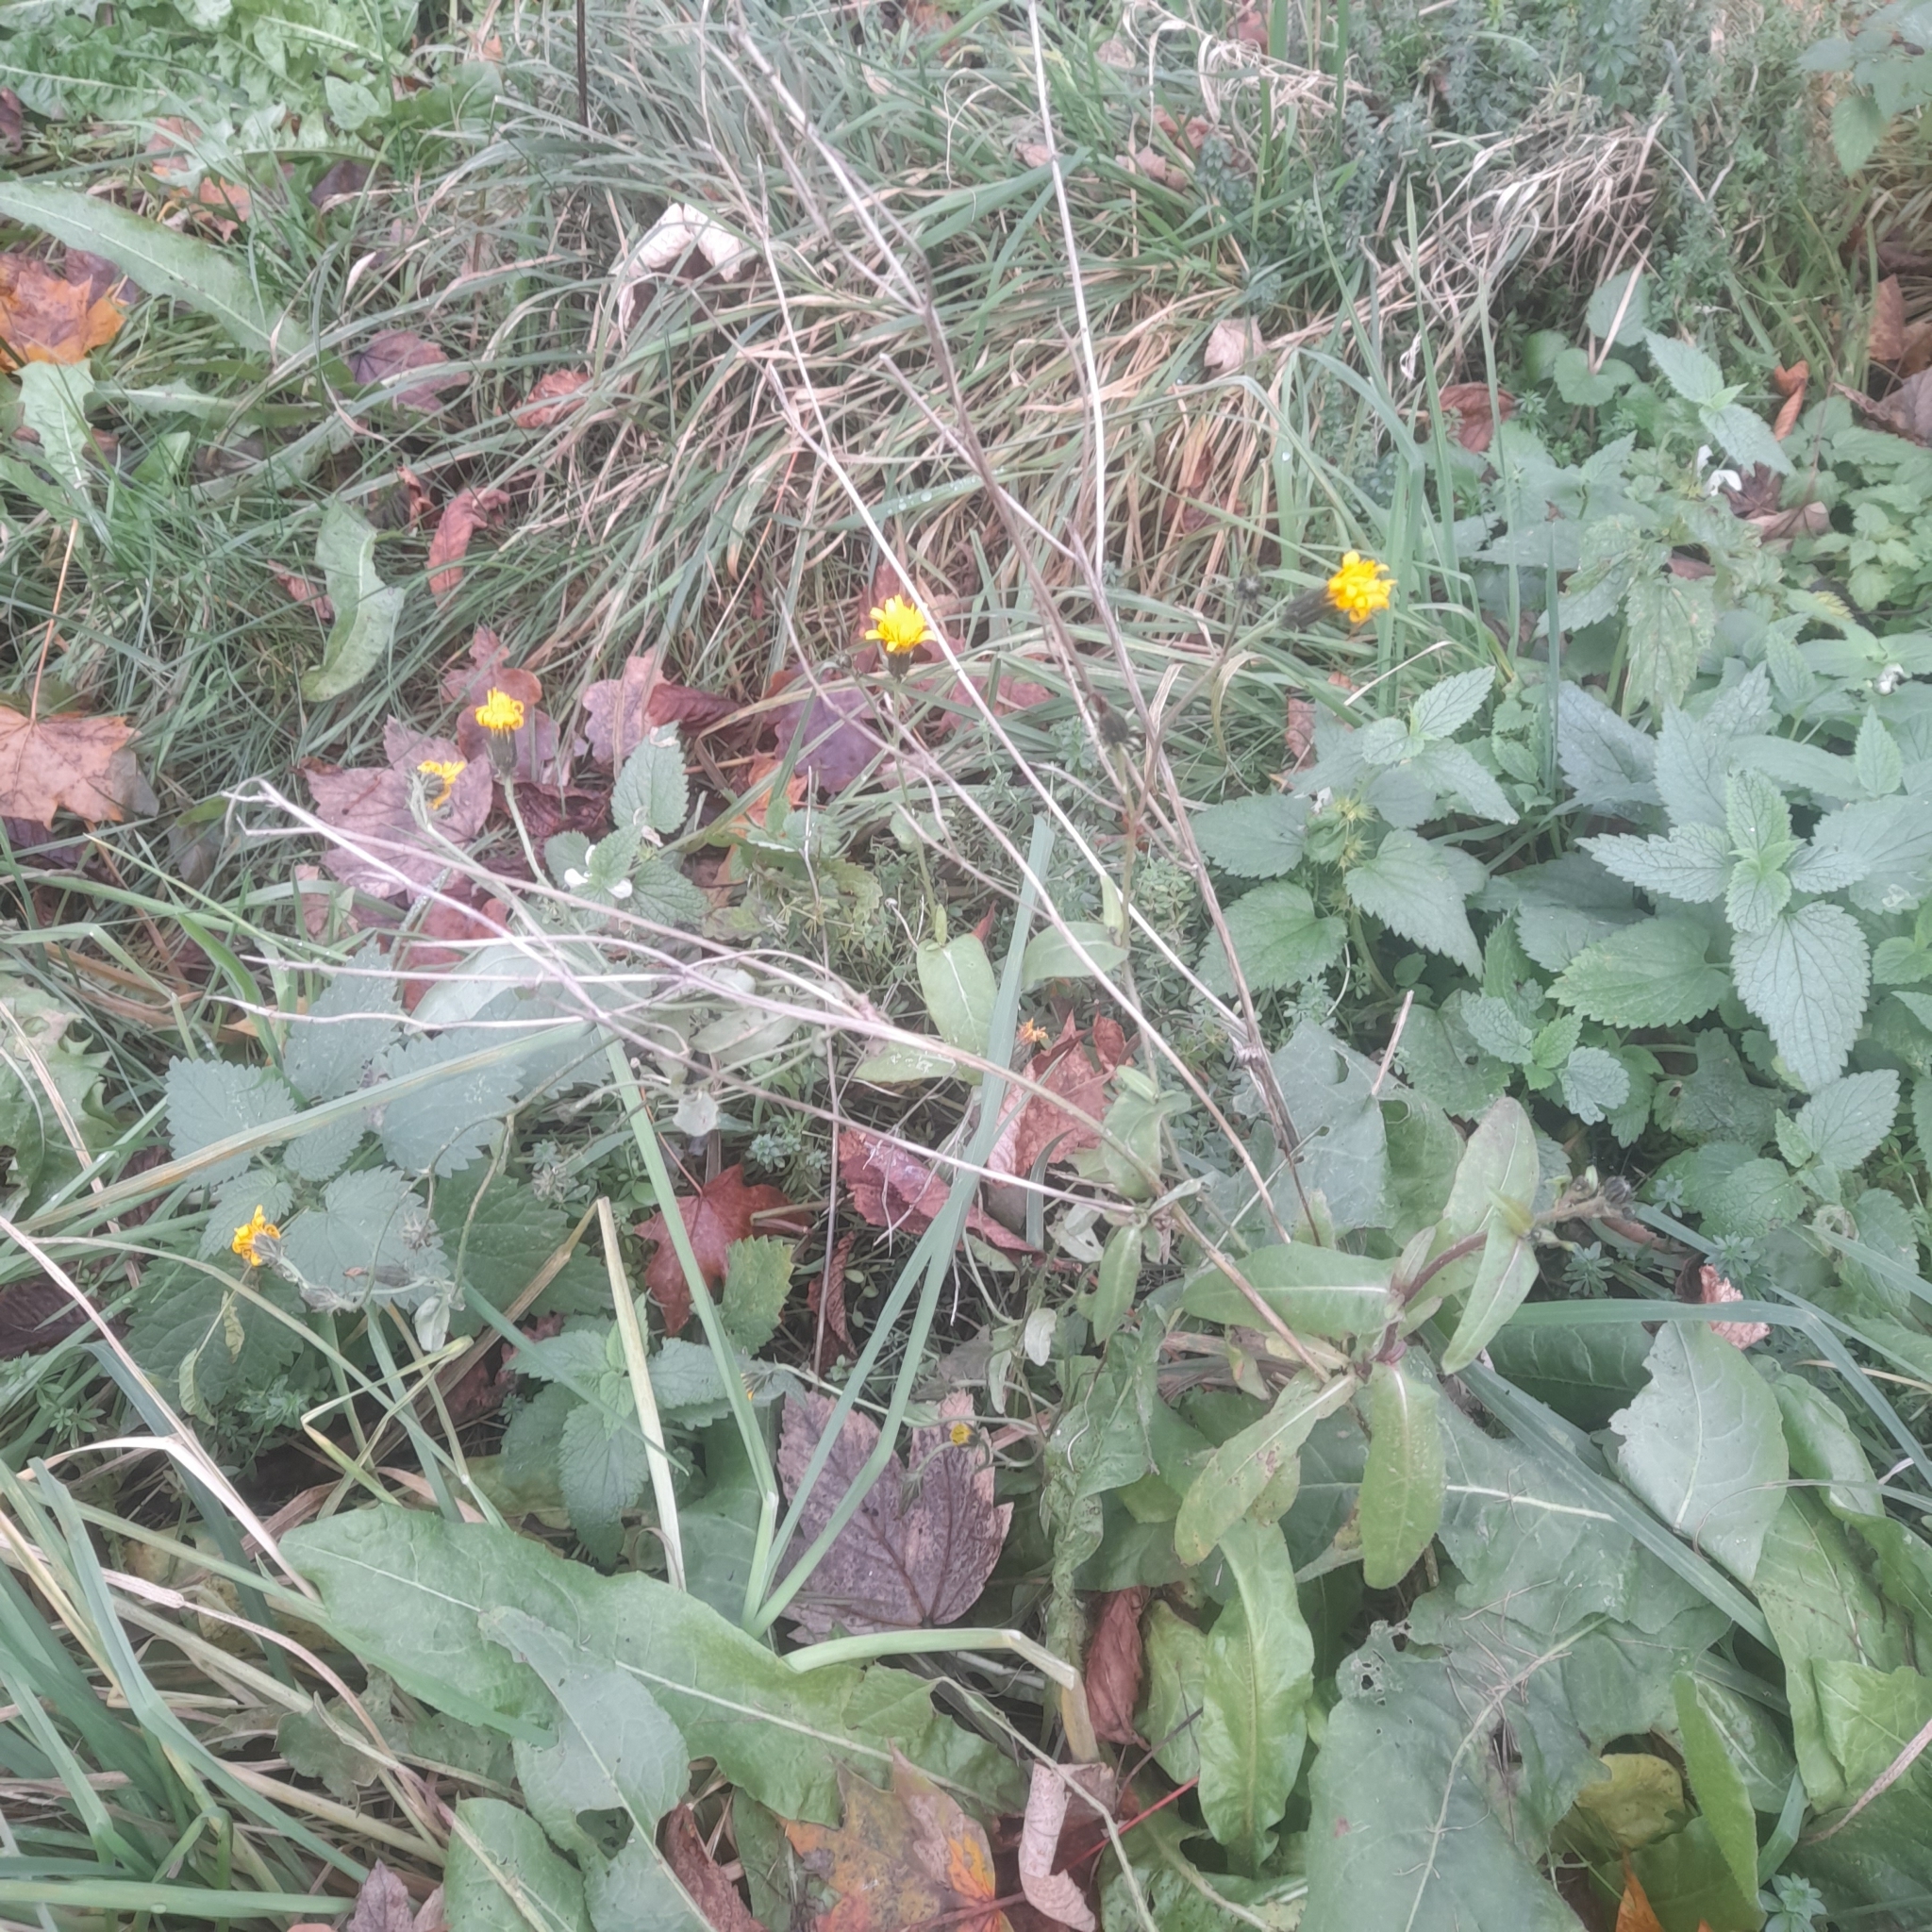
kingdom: Plantae
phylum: Tracheophyta
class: Magnoliopsida
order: Asterales
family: Asteraceae
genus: Picris
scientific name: Picris hieracioides
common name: Hawkweed oxtongue
